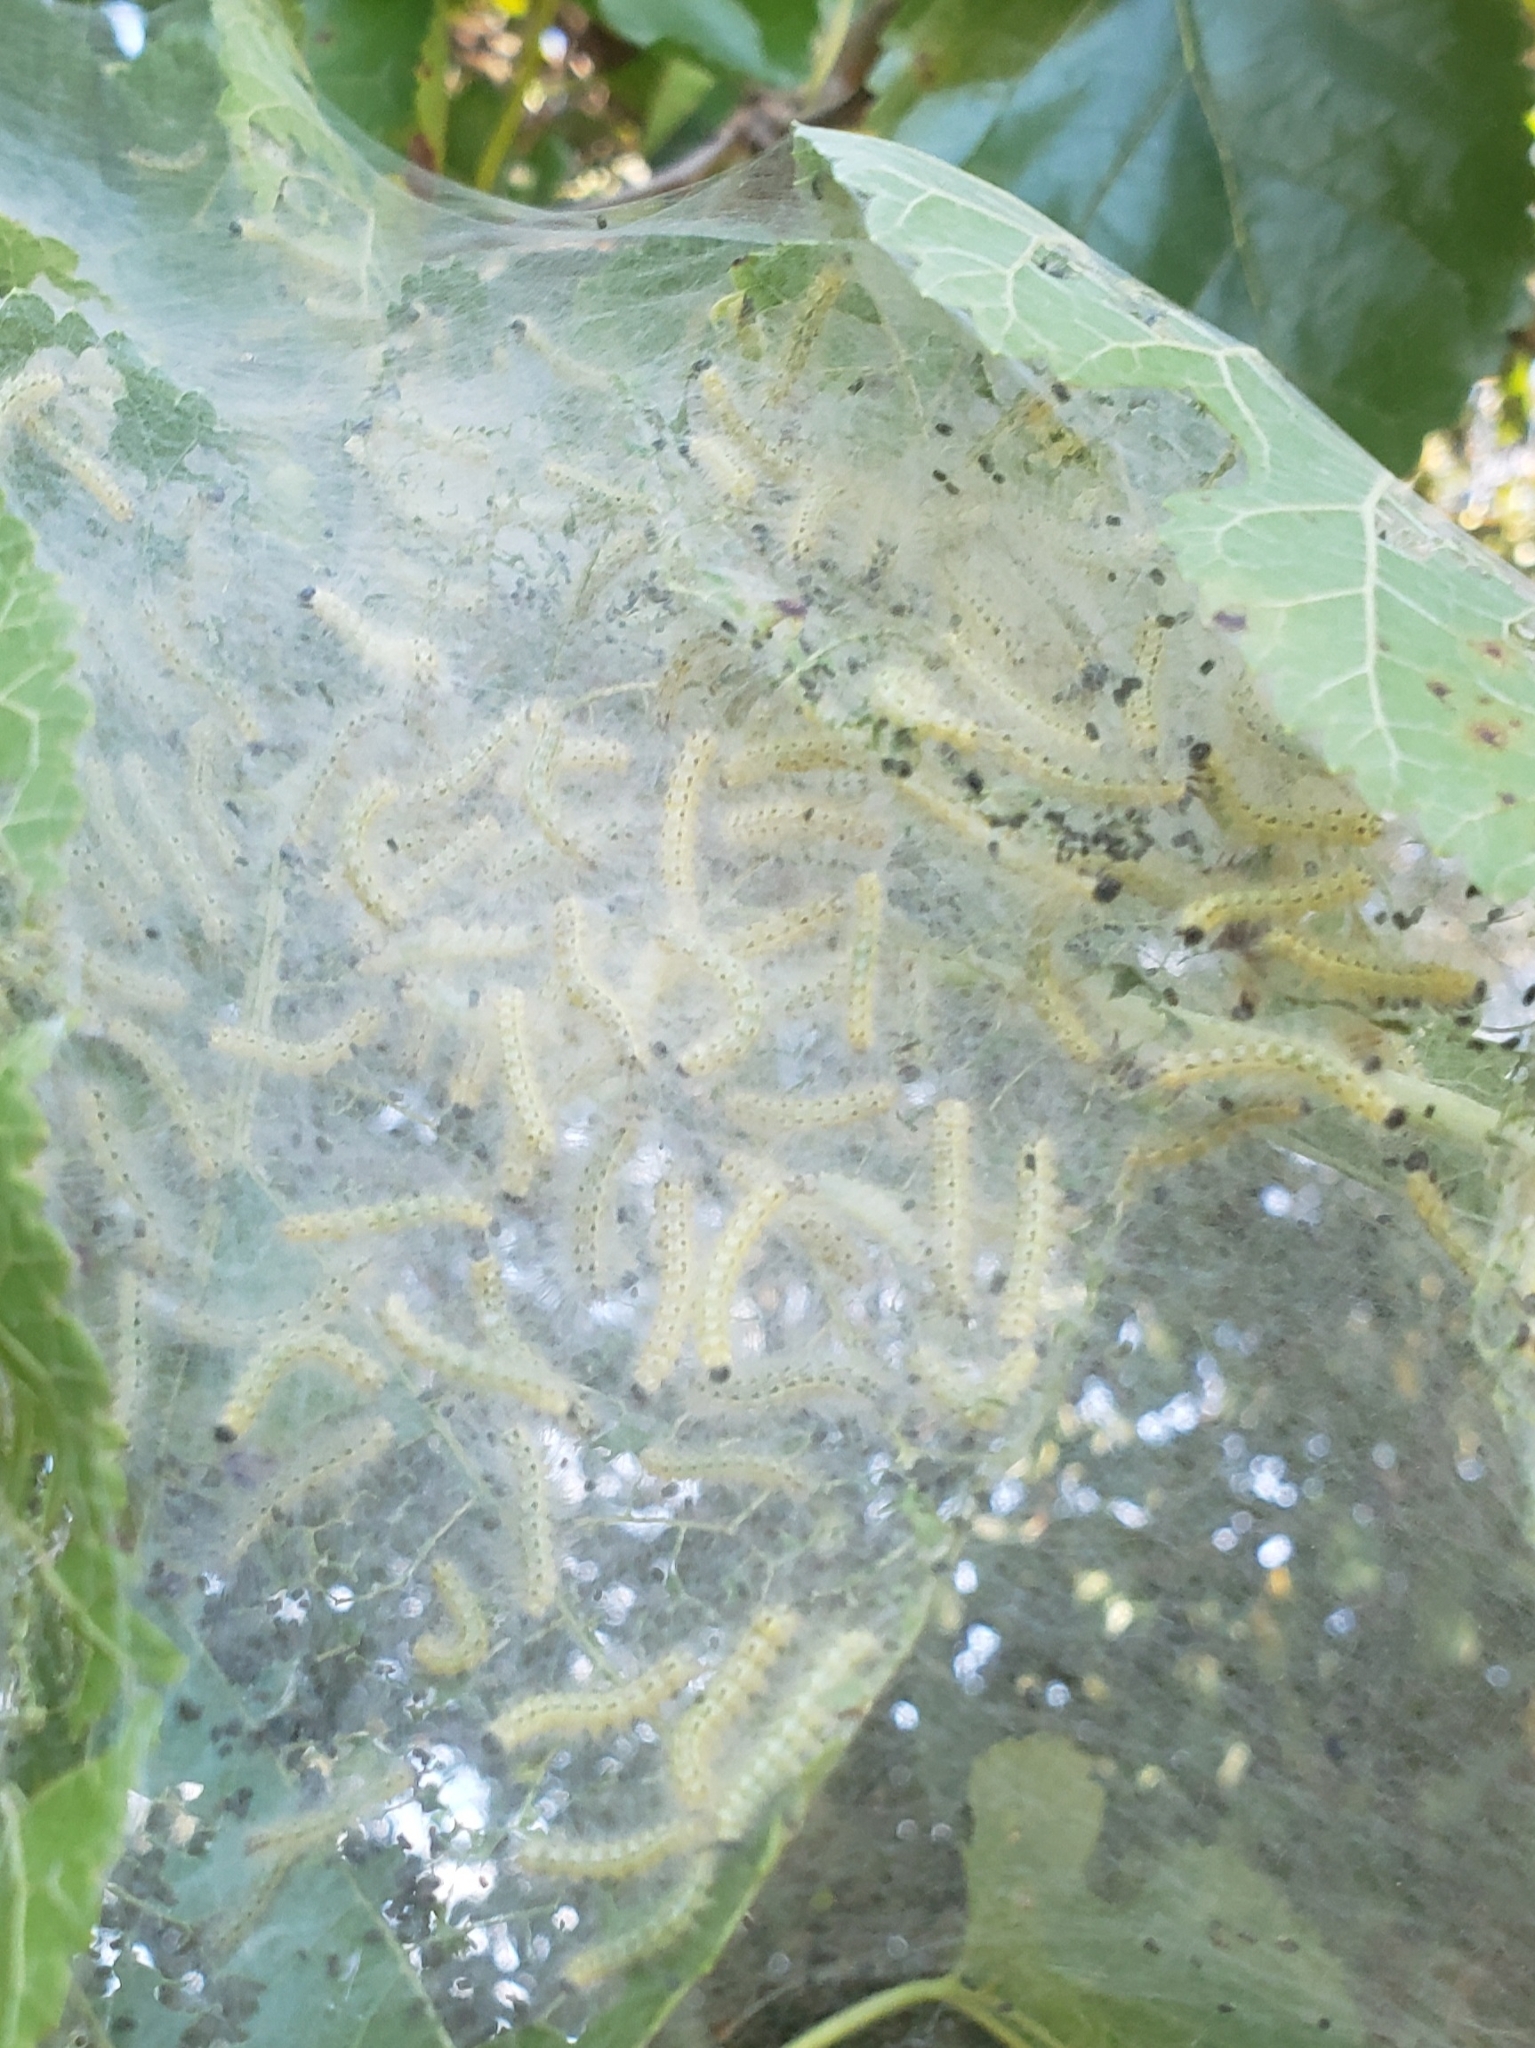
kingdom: Animalia
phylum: Arthropoda
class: Insecta
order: Lepidoptera
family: Erebidae
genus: Hyphantria
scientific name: Hyphantria cunea
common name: American white moth
